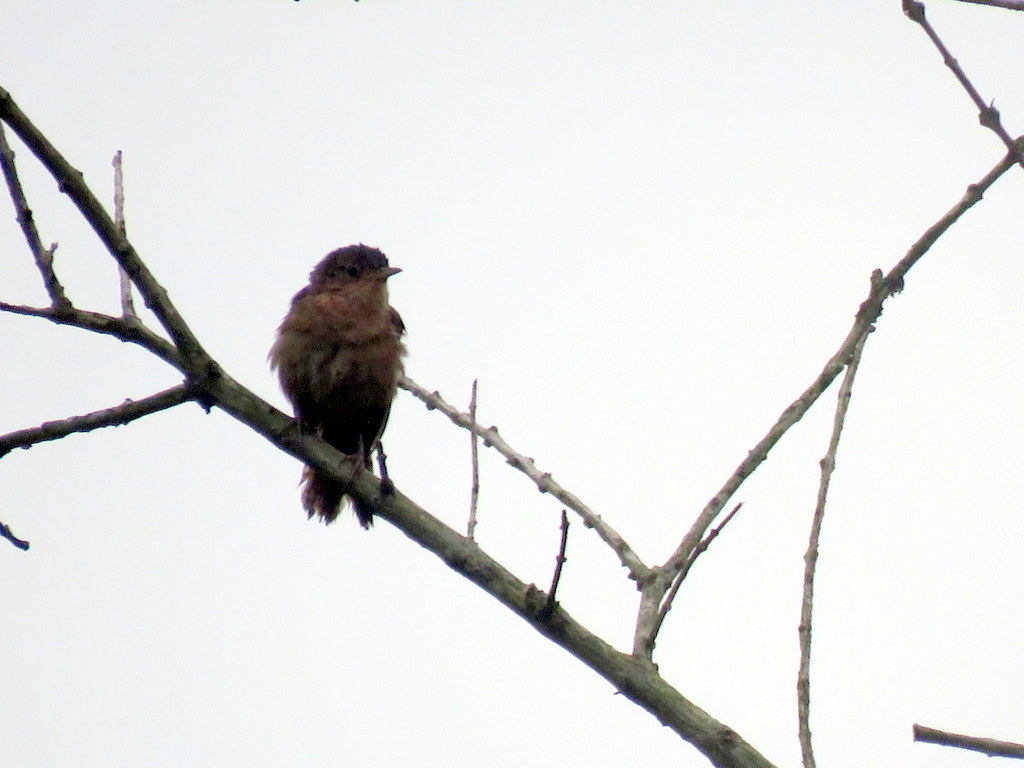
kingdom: Animalia
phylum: Chordata
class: Aves
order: Passeriformes
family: Troglodytidae
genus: Troglodytes
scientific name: Troglodytes aedon
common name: House wren
